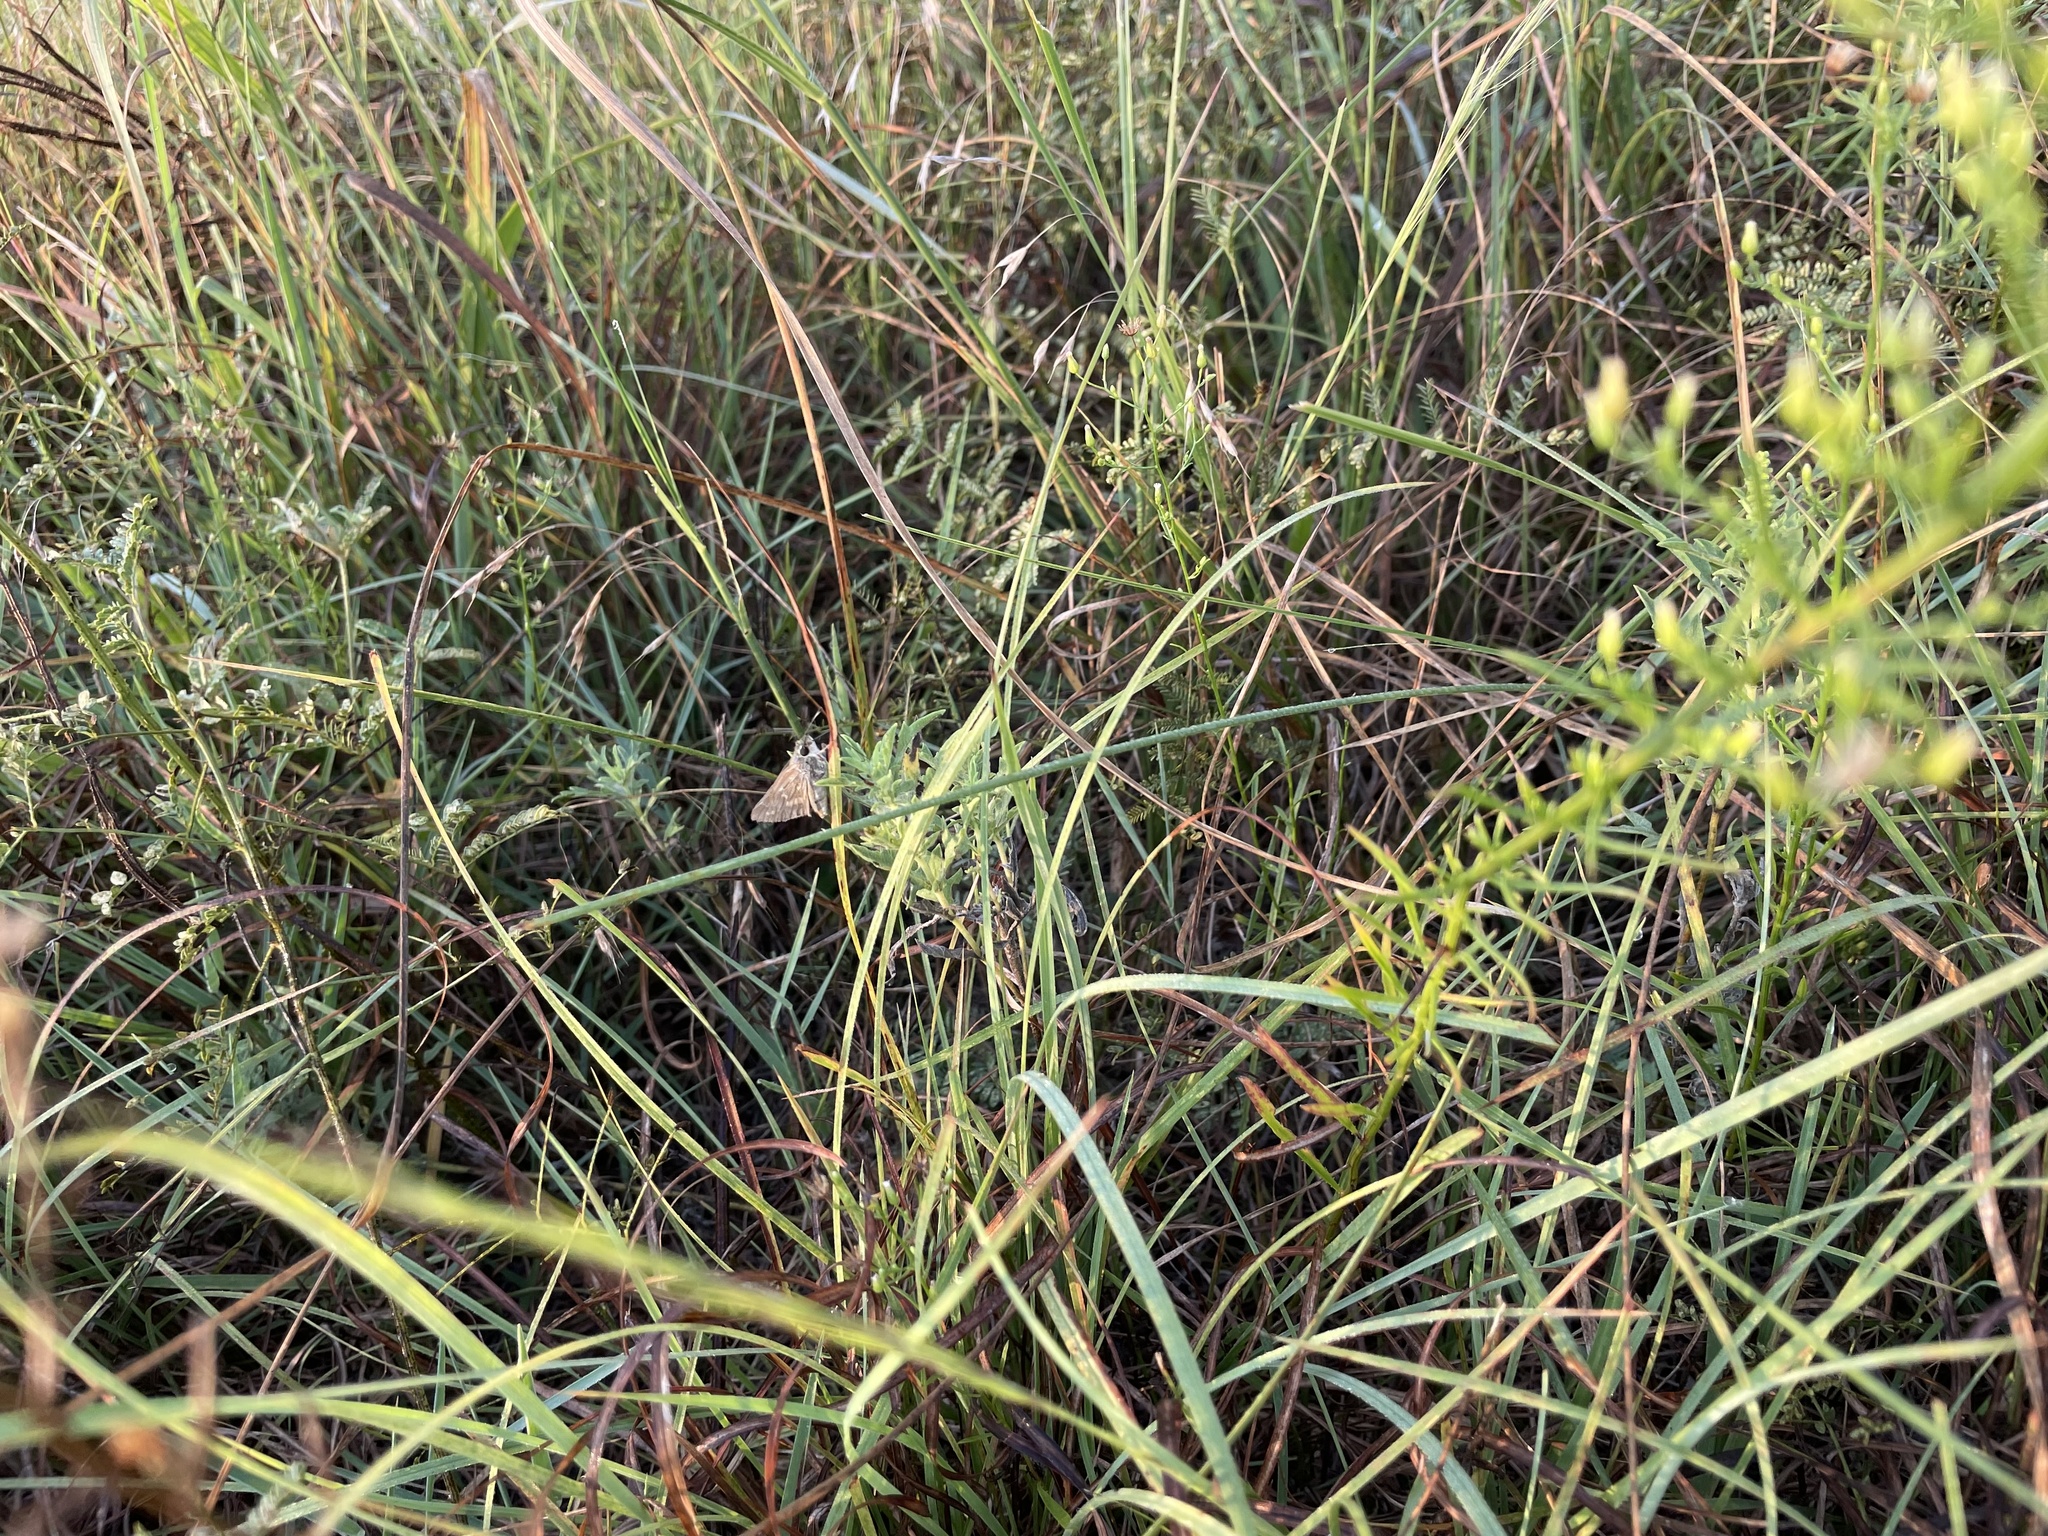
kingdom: Animalia
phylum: Arthropoda
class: Insecta
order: Lepidoptera
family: Hesperiidae
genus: Atalopedes
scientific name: Atalopedes
